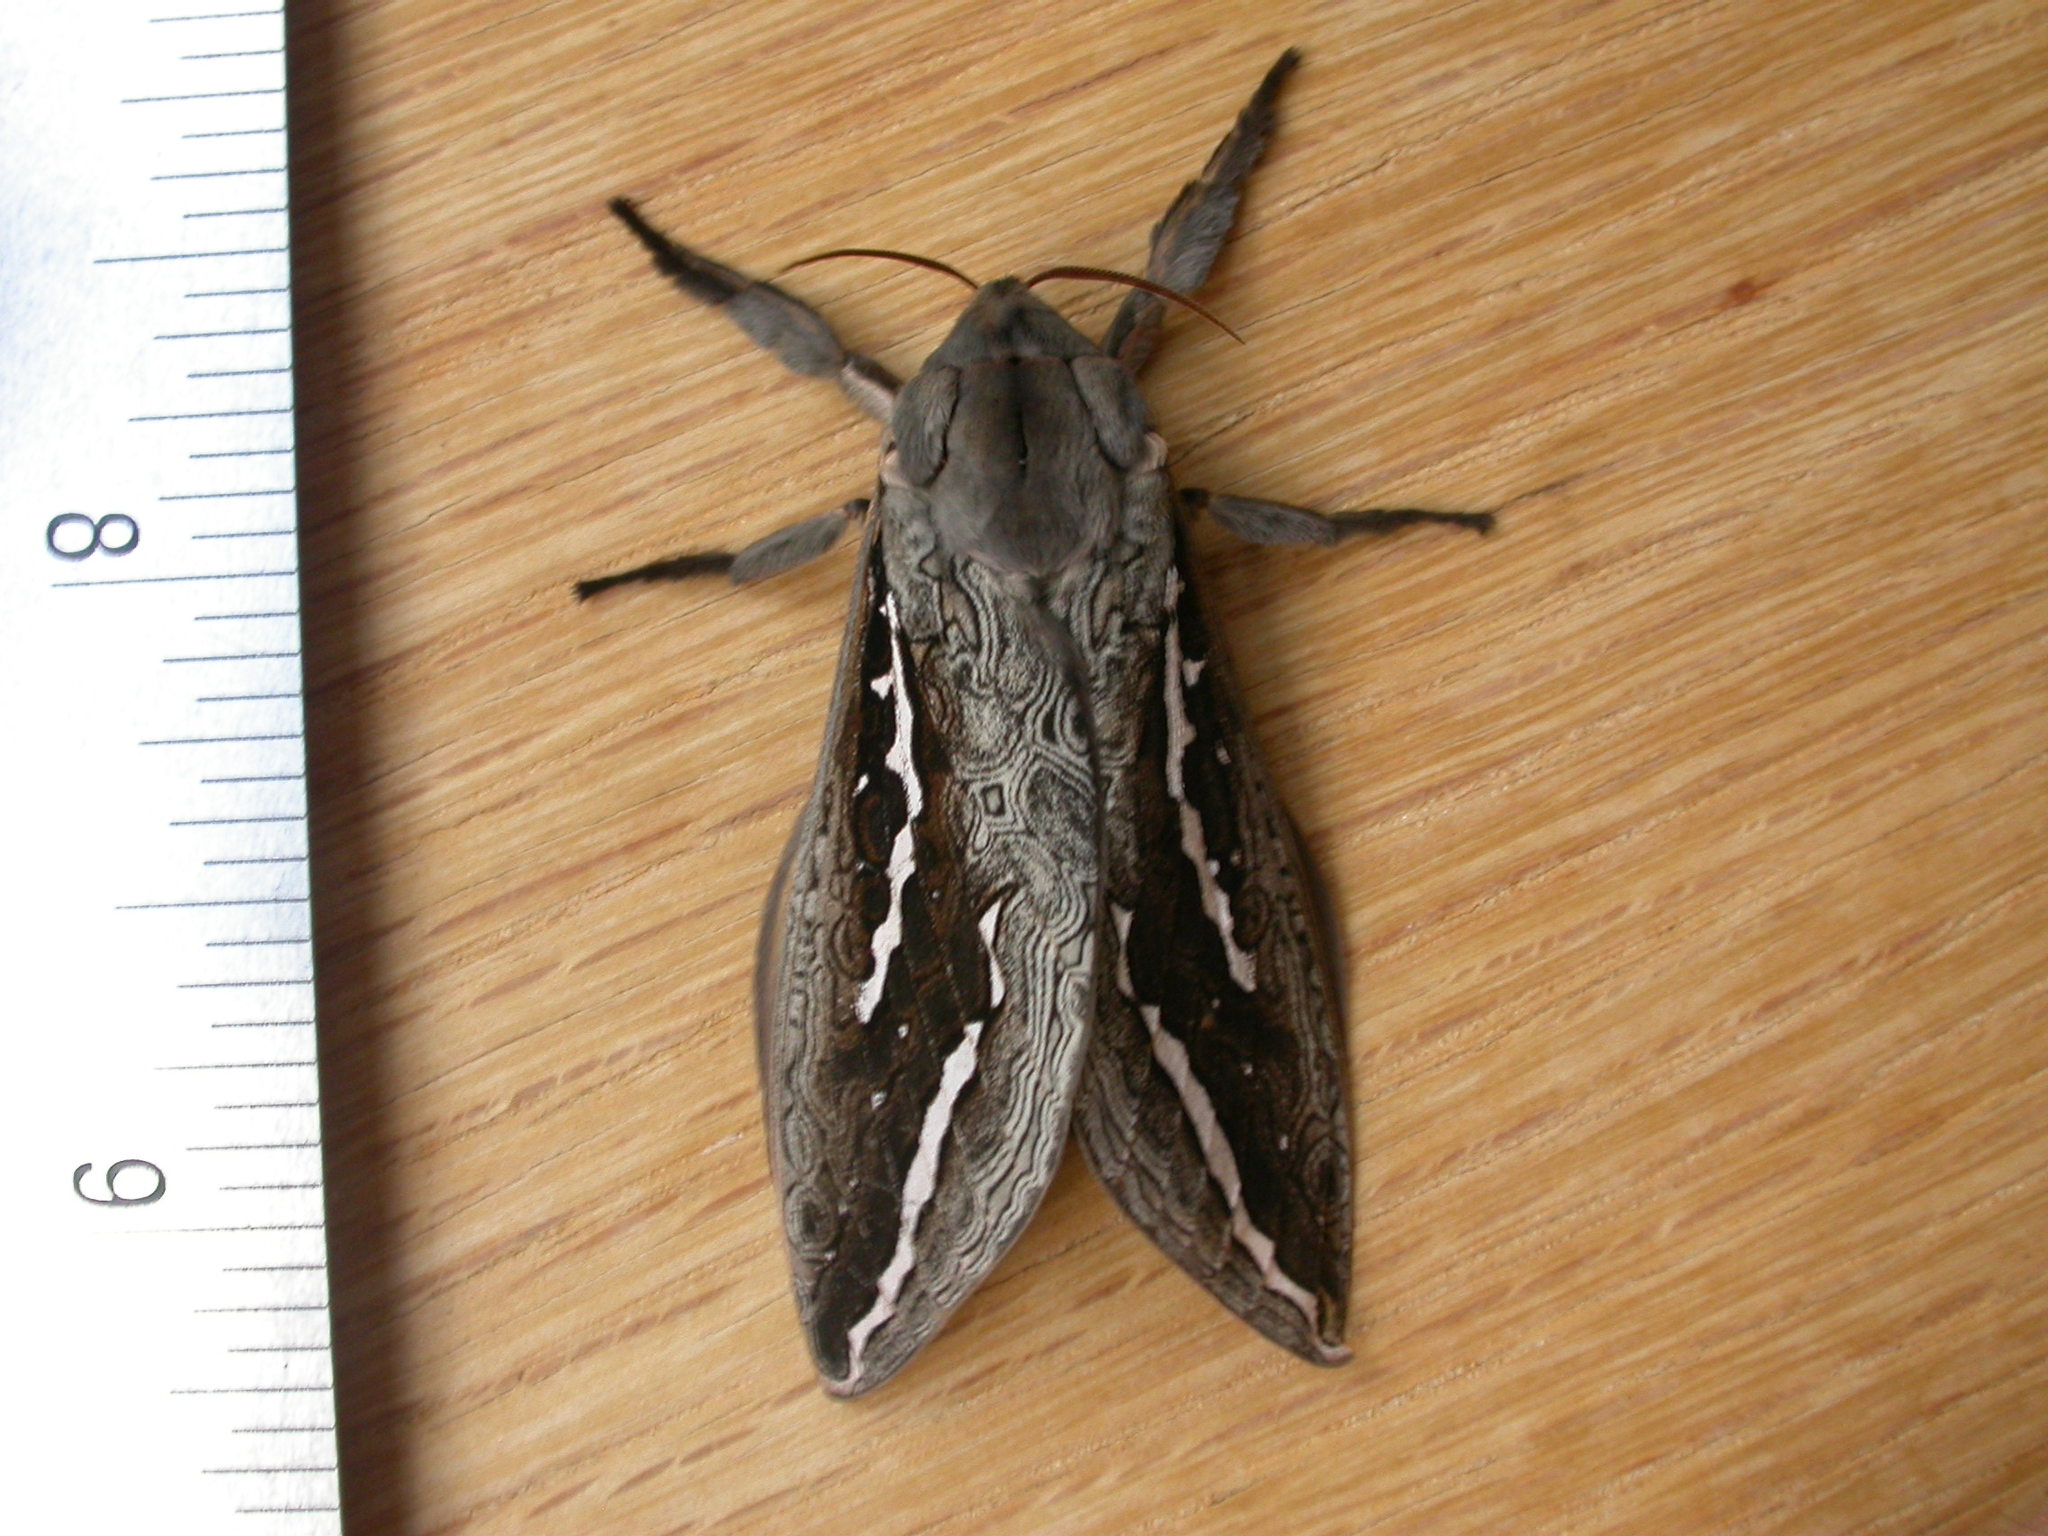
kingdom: Animalia
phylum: Arthropoda
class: Insecta
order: Lepidoptera
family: Hepialidae
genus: Abantiades
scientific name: Abantiades labyrinthicus
